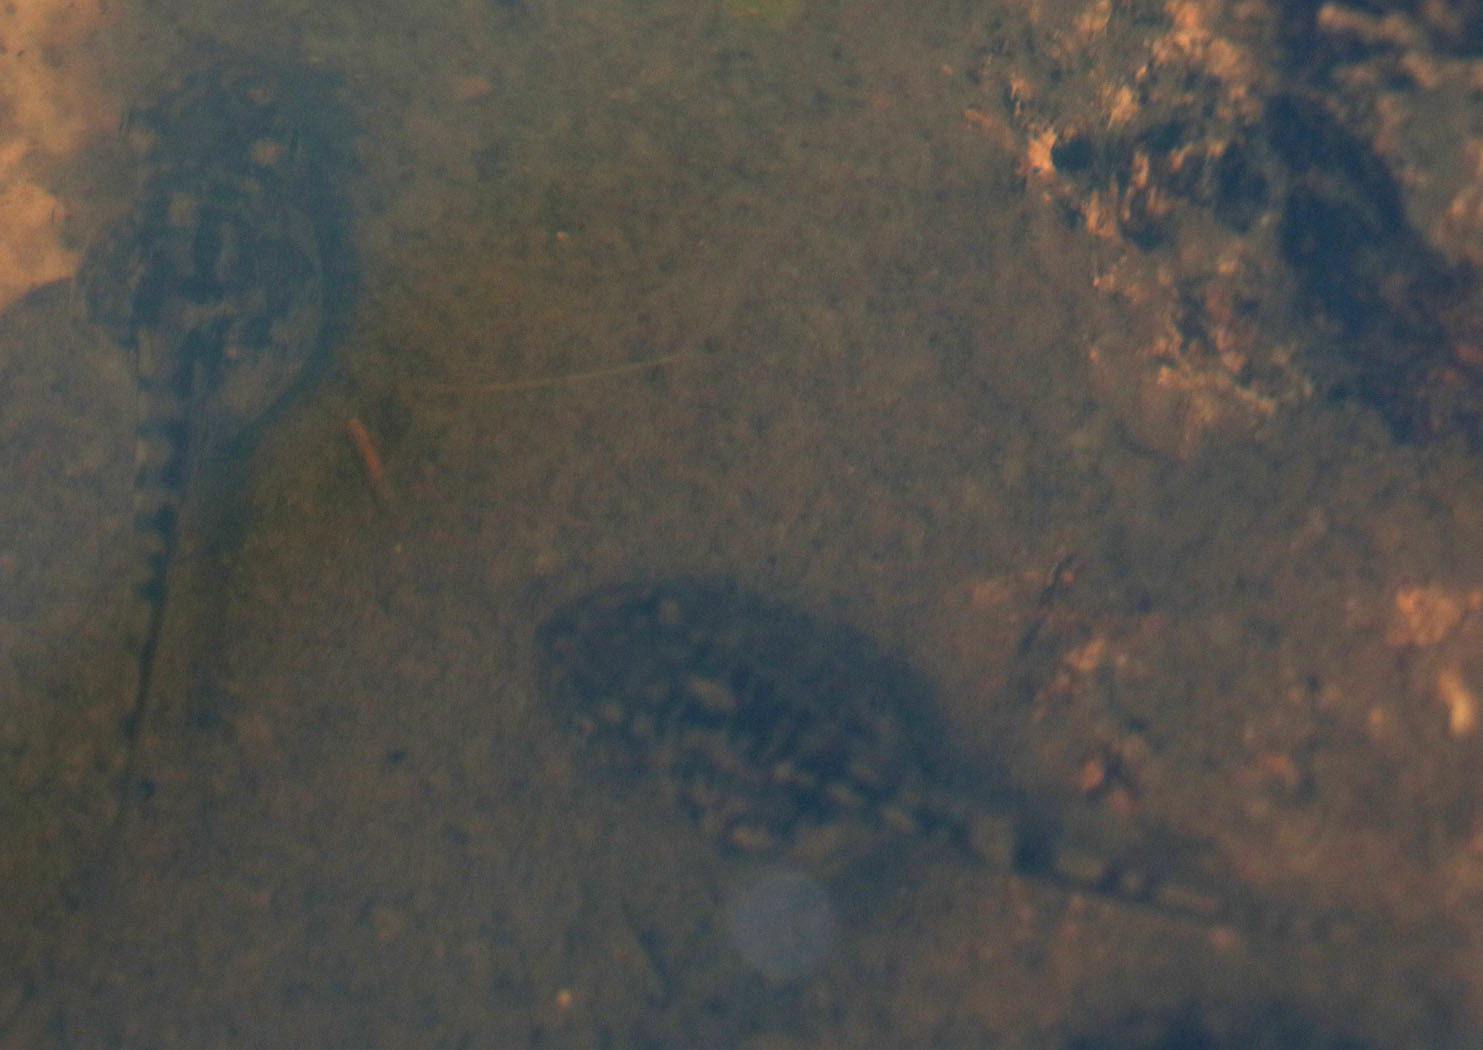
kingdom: Animalia
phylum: Chordata
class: Amphibia
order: Anura
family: Hylidae
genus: Pseudacris
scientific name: Pseudacris regilla
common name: Pacific chorus frog
